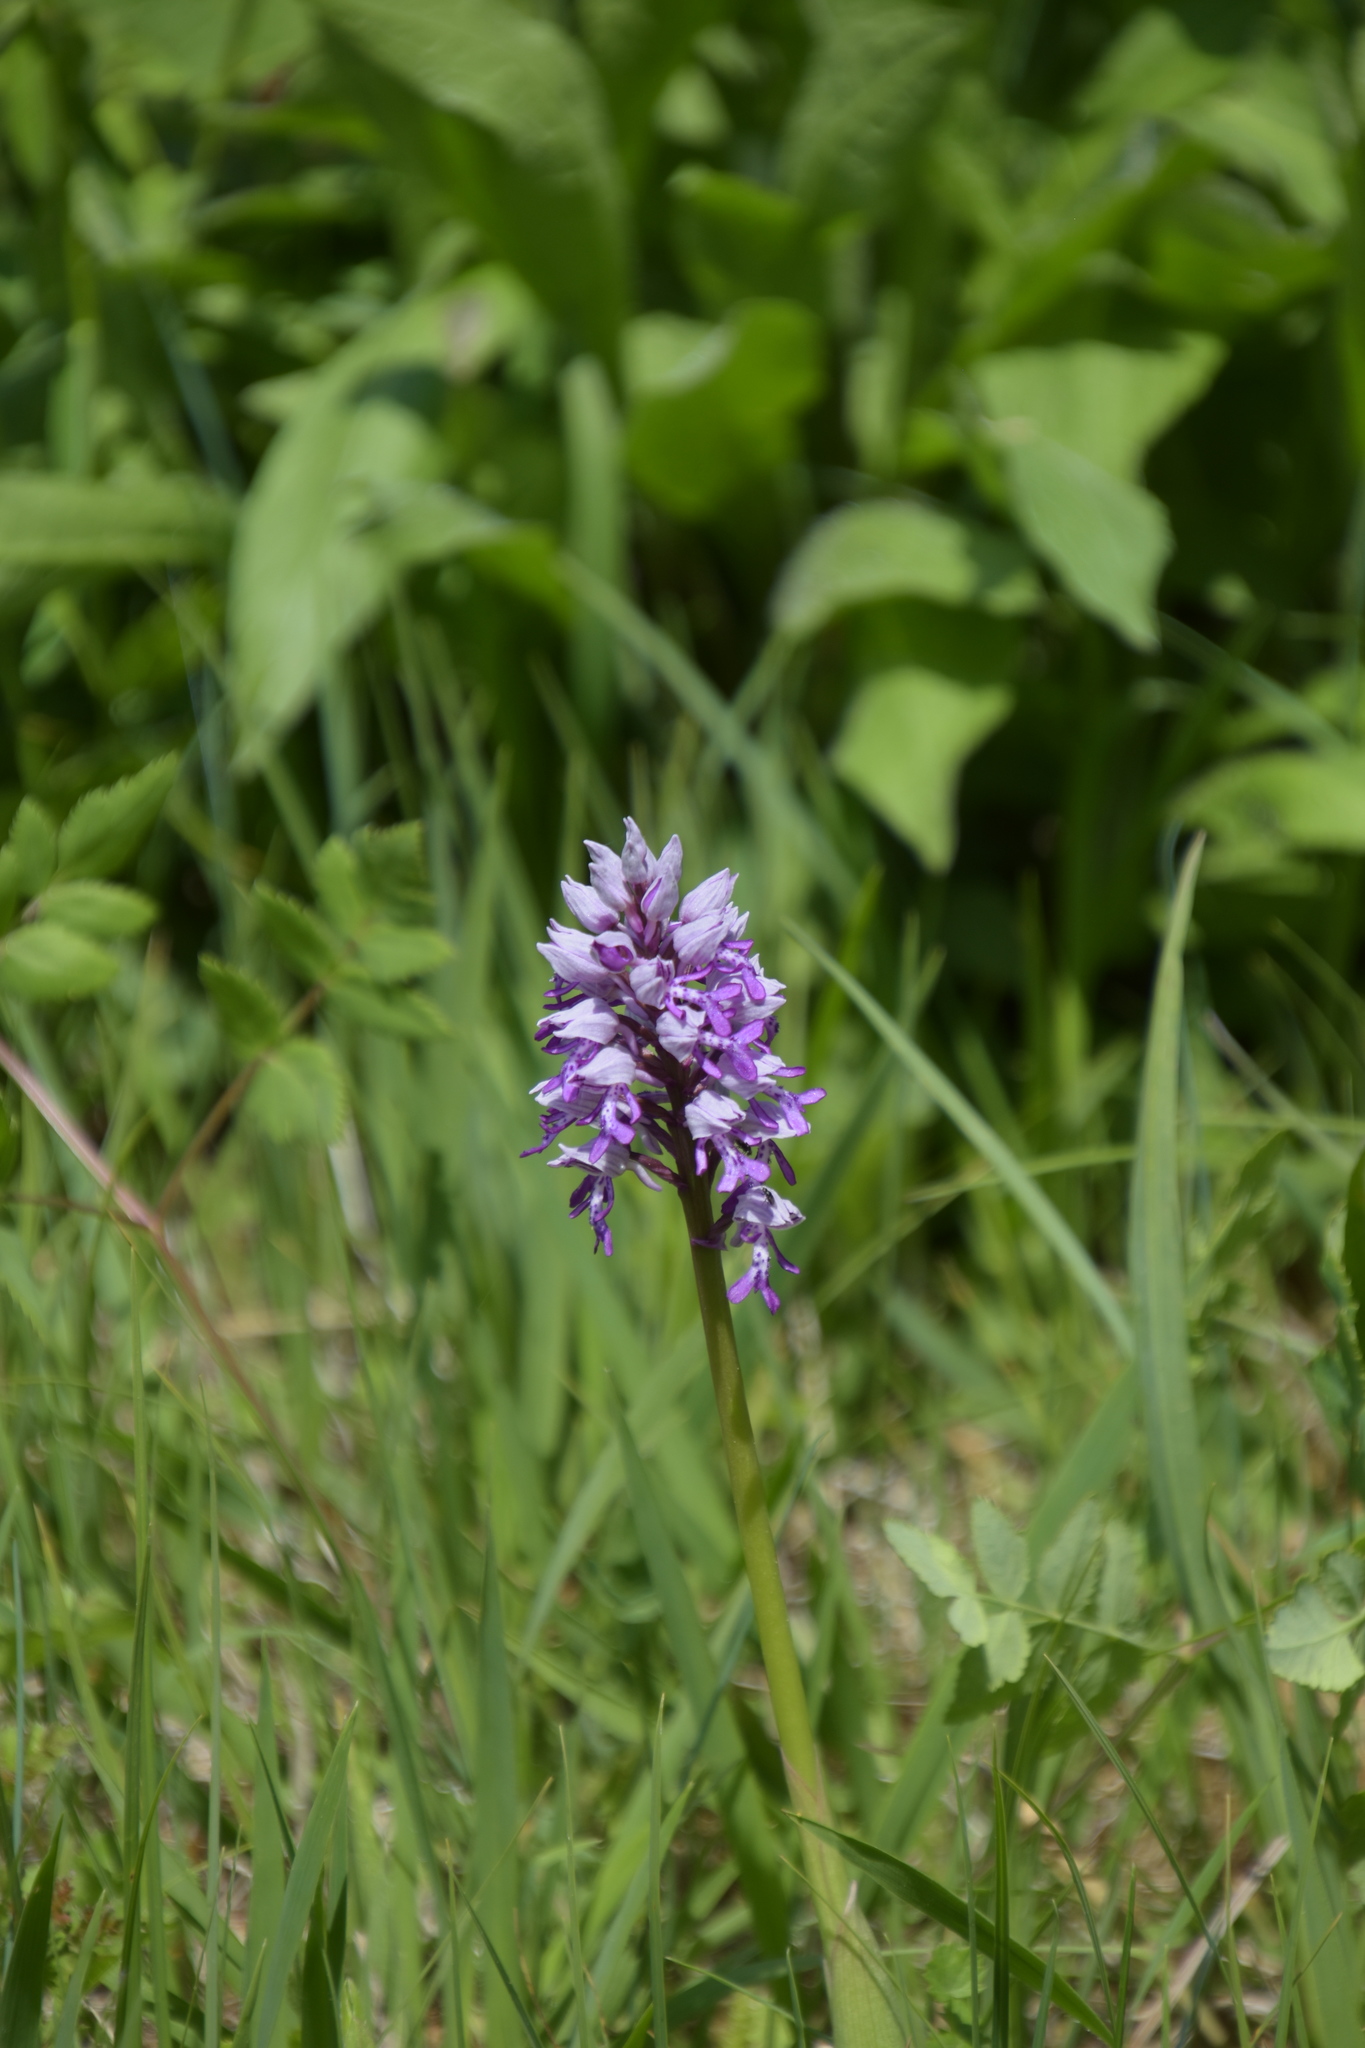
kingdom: Plantae
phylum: Tracheophyta
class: Liliopsida
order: Asparagales
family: Orchidaceae
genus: Orchis
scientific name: Orchis militaris
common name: Military orchid
